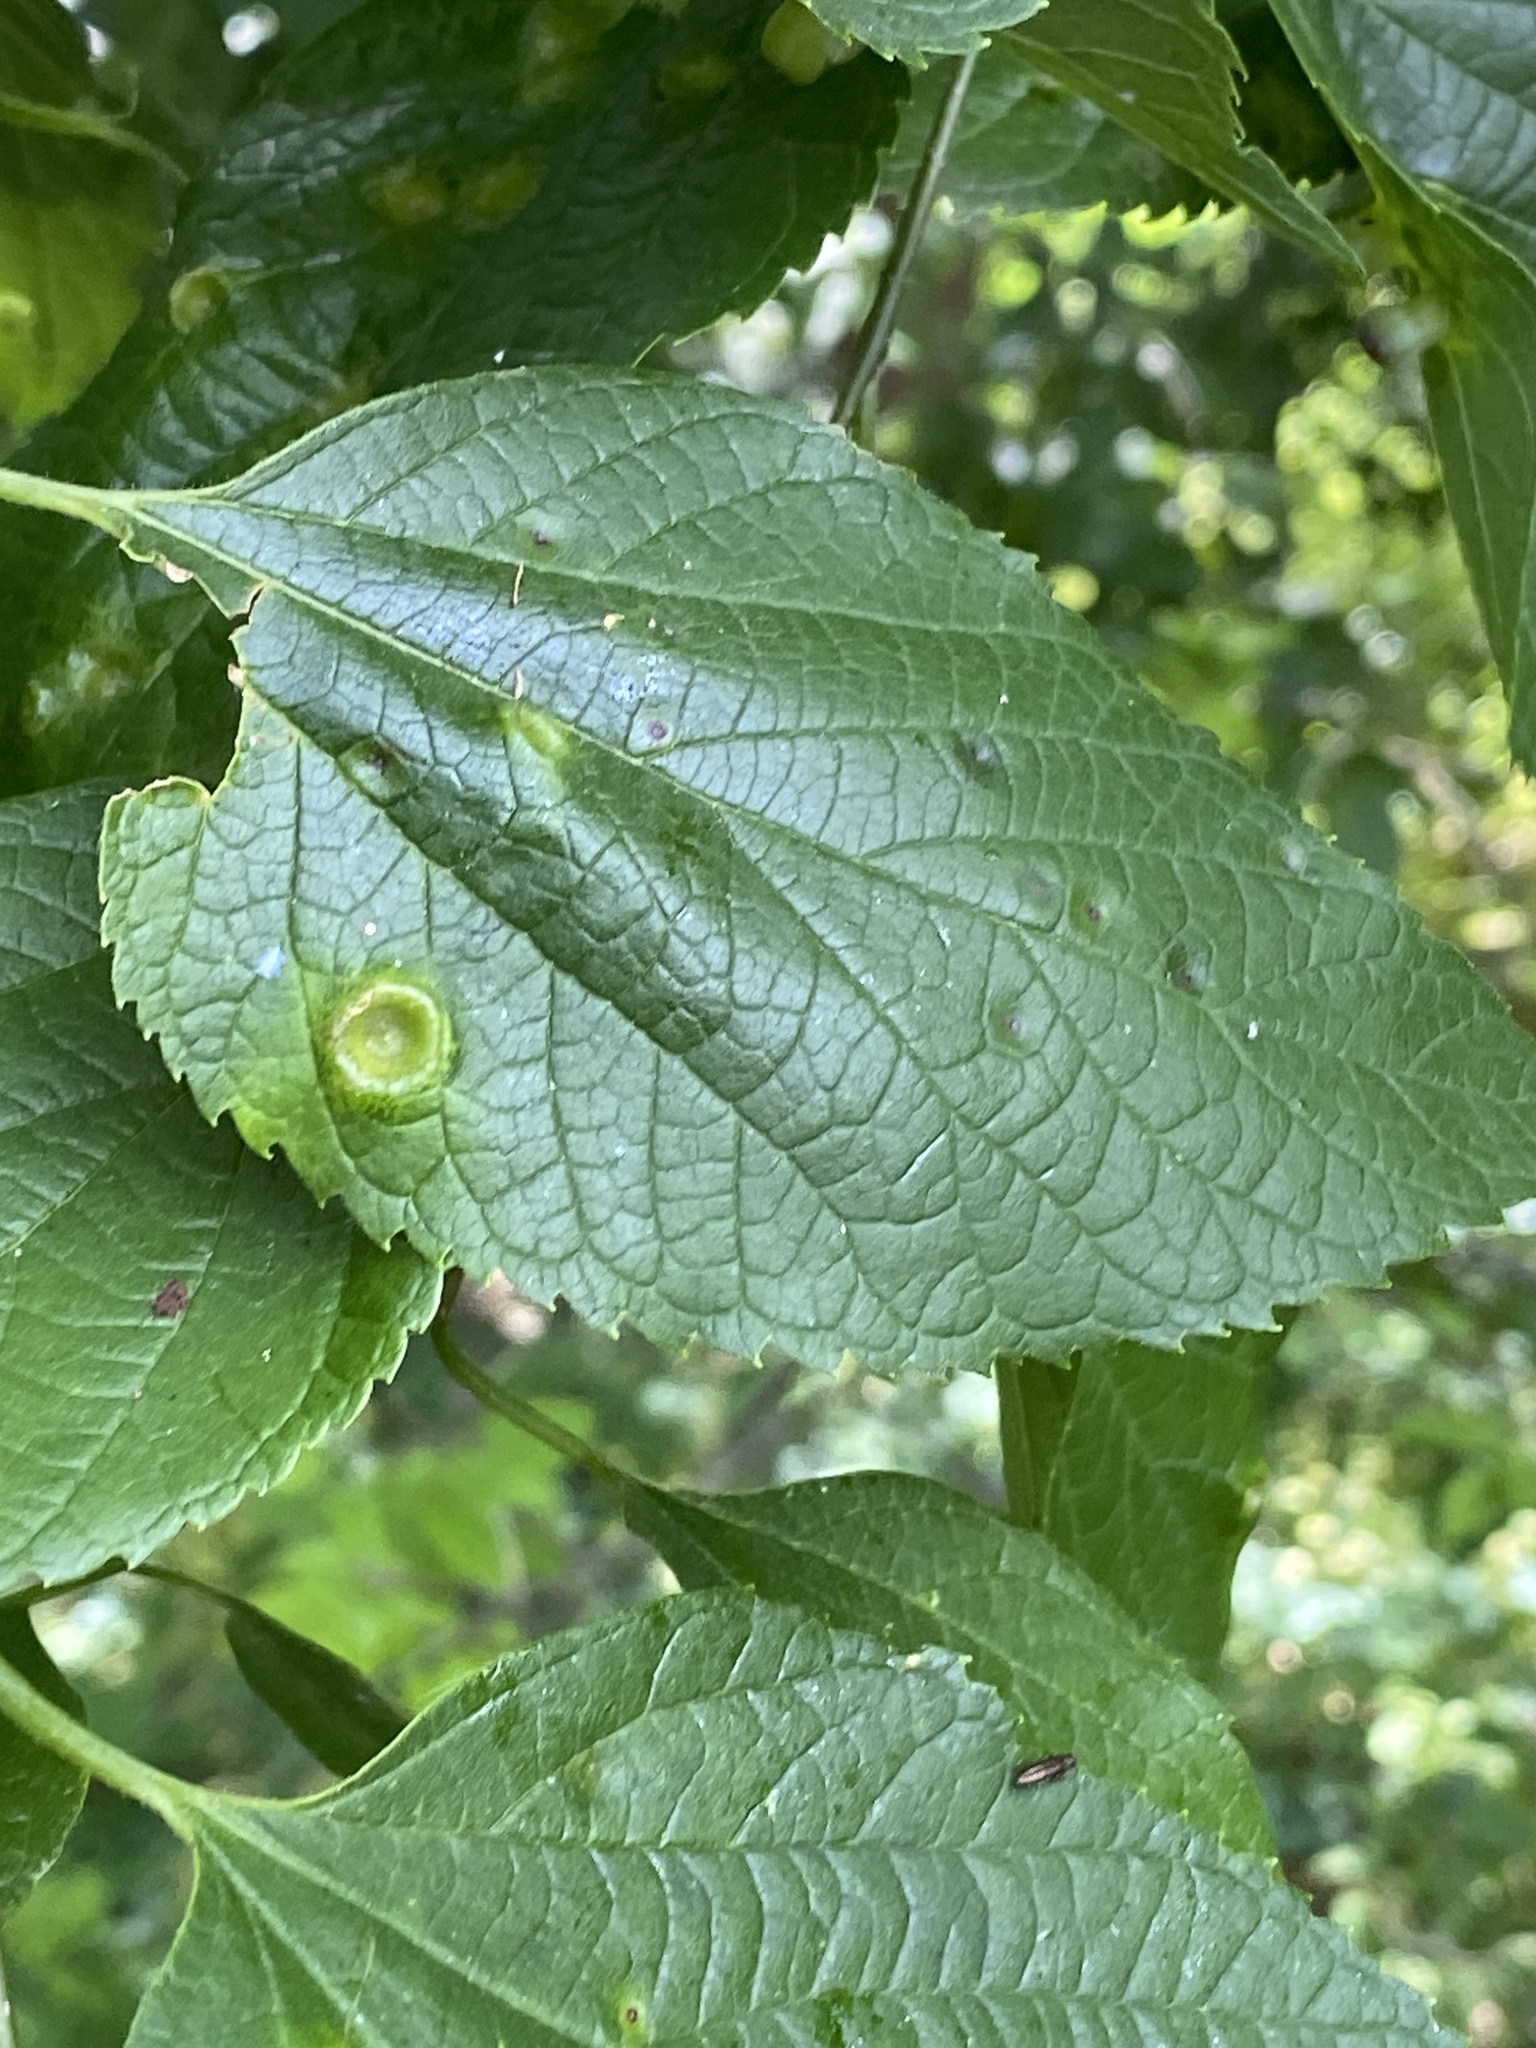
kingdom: Animalia
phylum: Arthropoda
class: Insecta
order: Hemiptera
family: Aphalaridae
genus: Pachypsylla
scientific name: Pachypsylla celtidismamma
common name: Hackberry nipplegall psyllid
